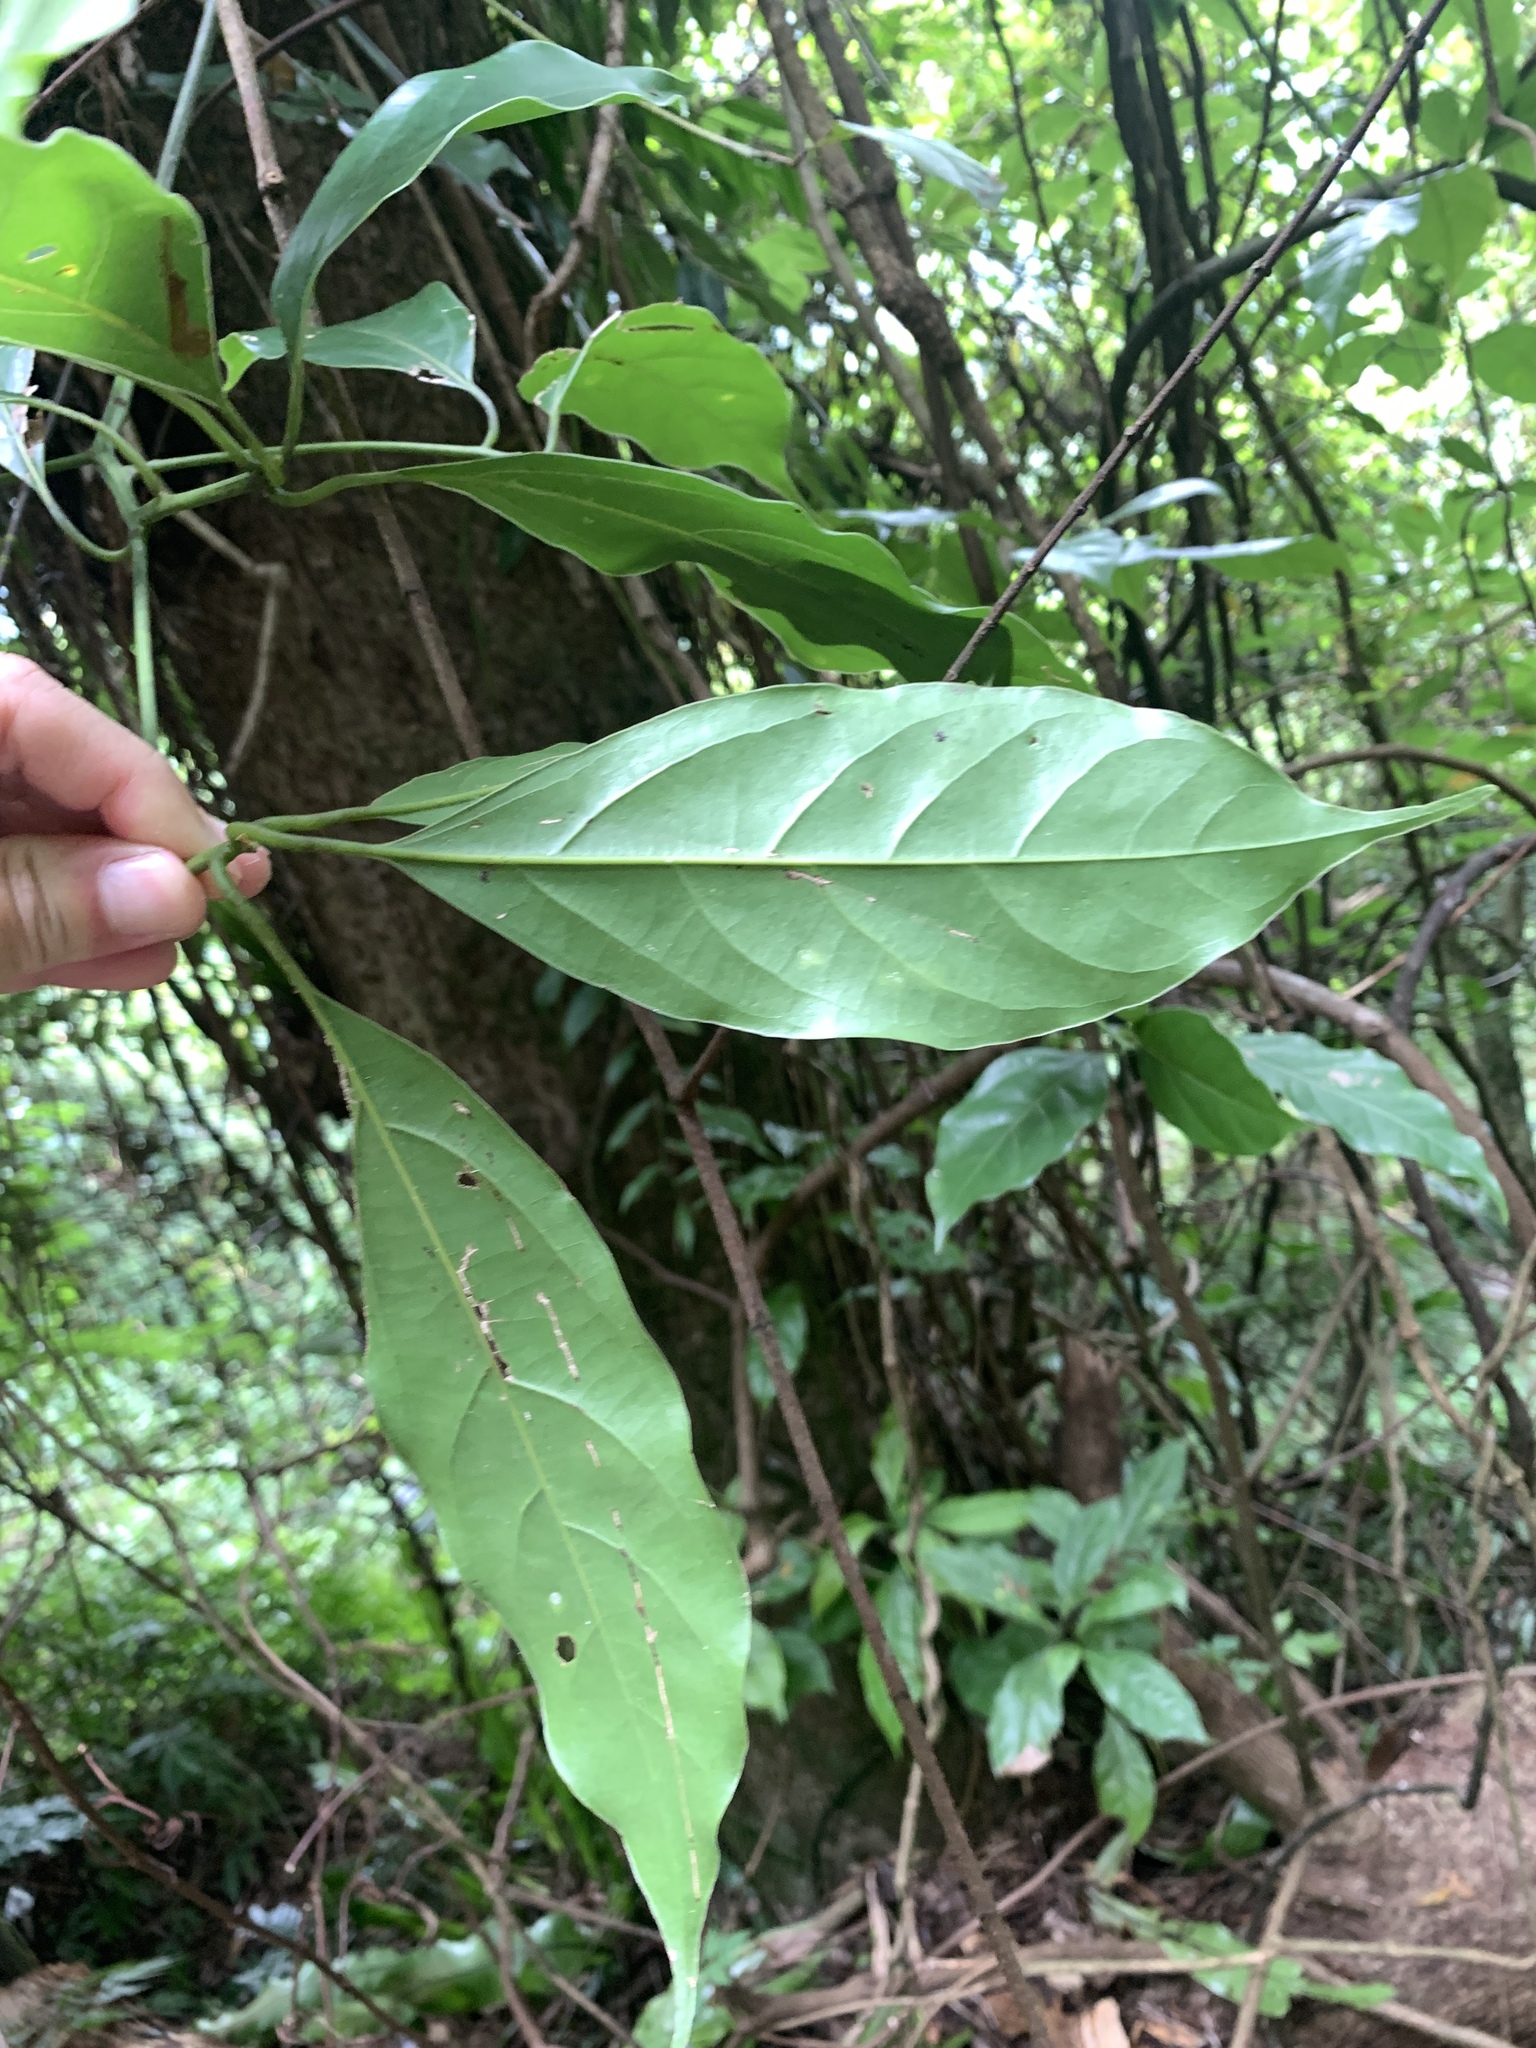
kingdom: Plantae
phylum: Tracheophyta
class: Magnoliopsida
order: Laurales
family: Lauraceae
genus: Cinnamomum
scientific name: Cinnamomum micranthum
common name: Chinese-sassafras
